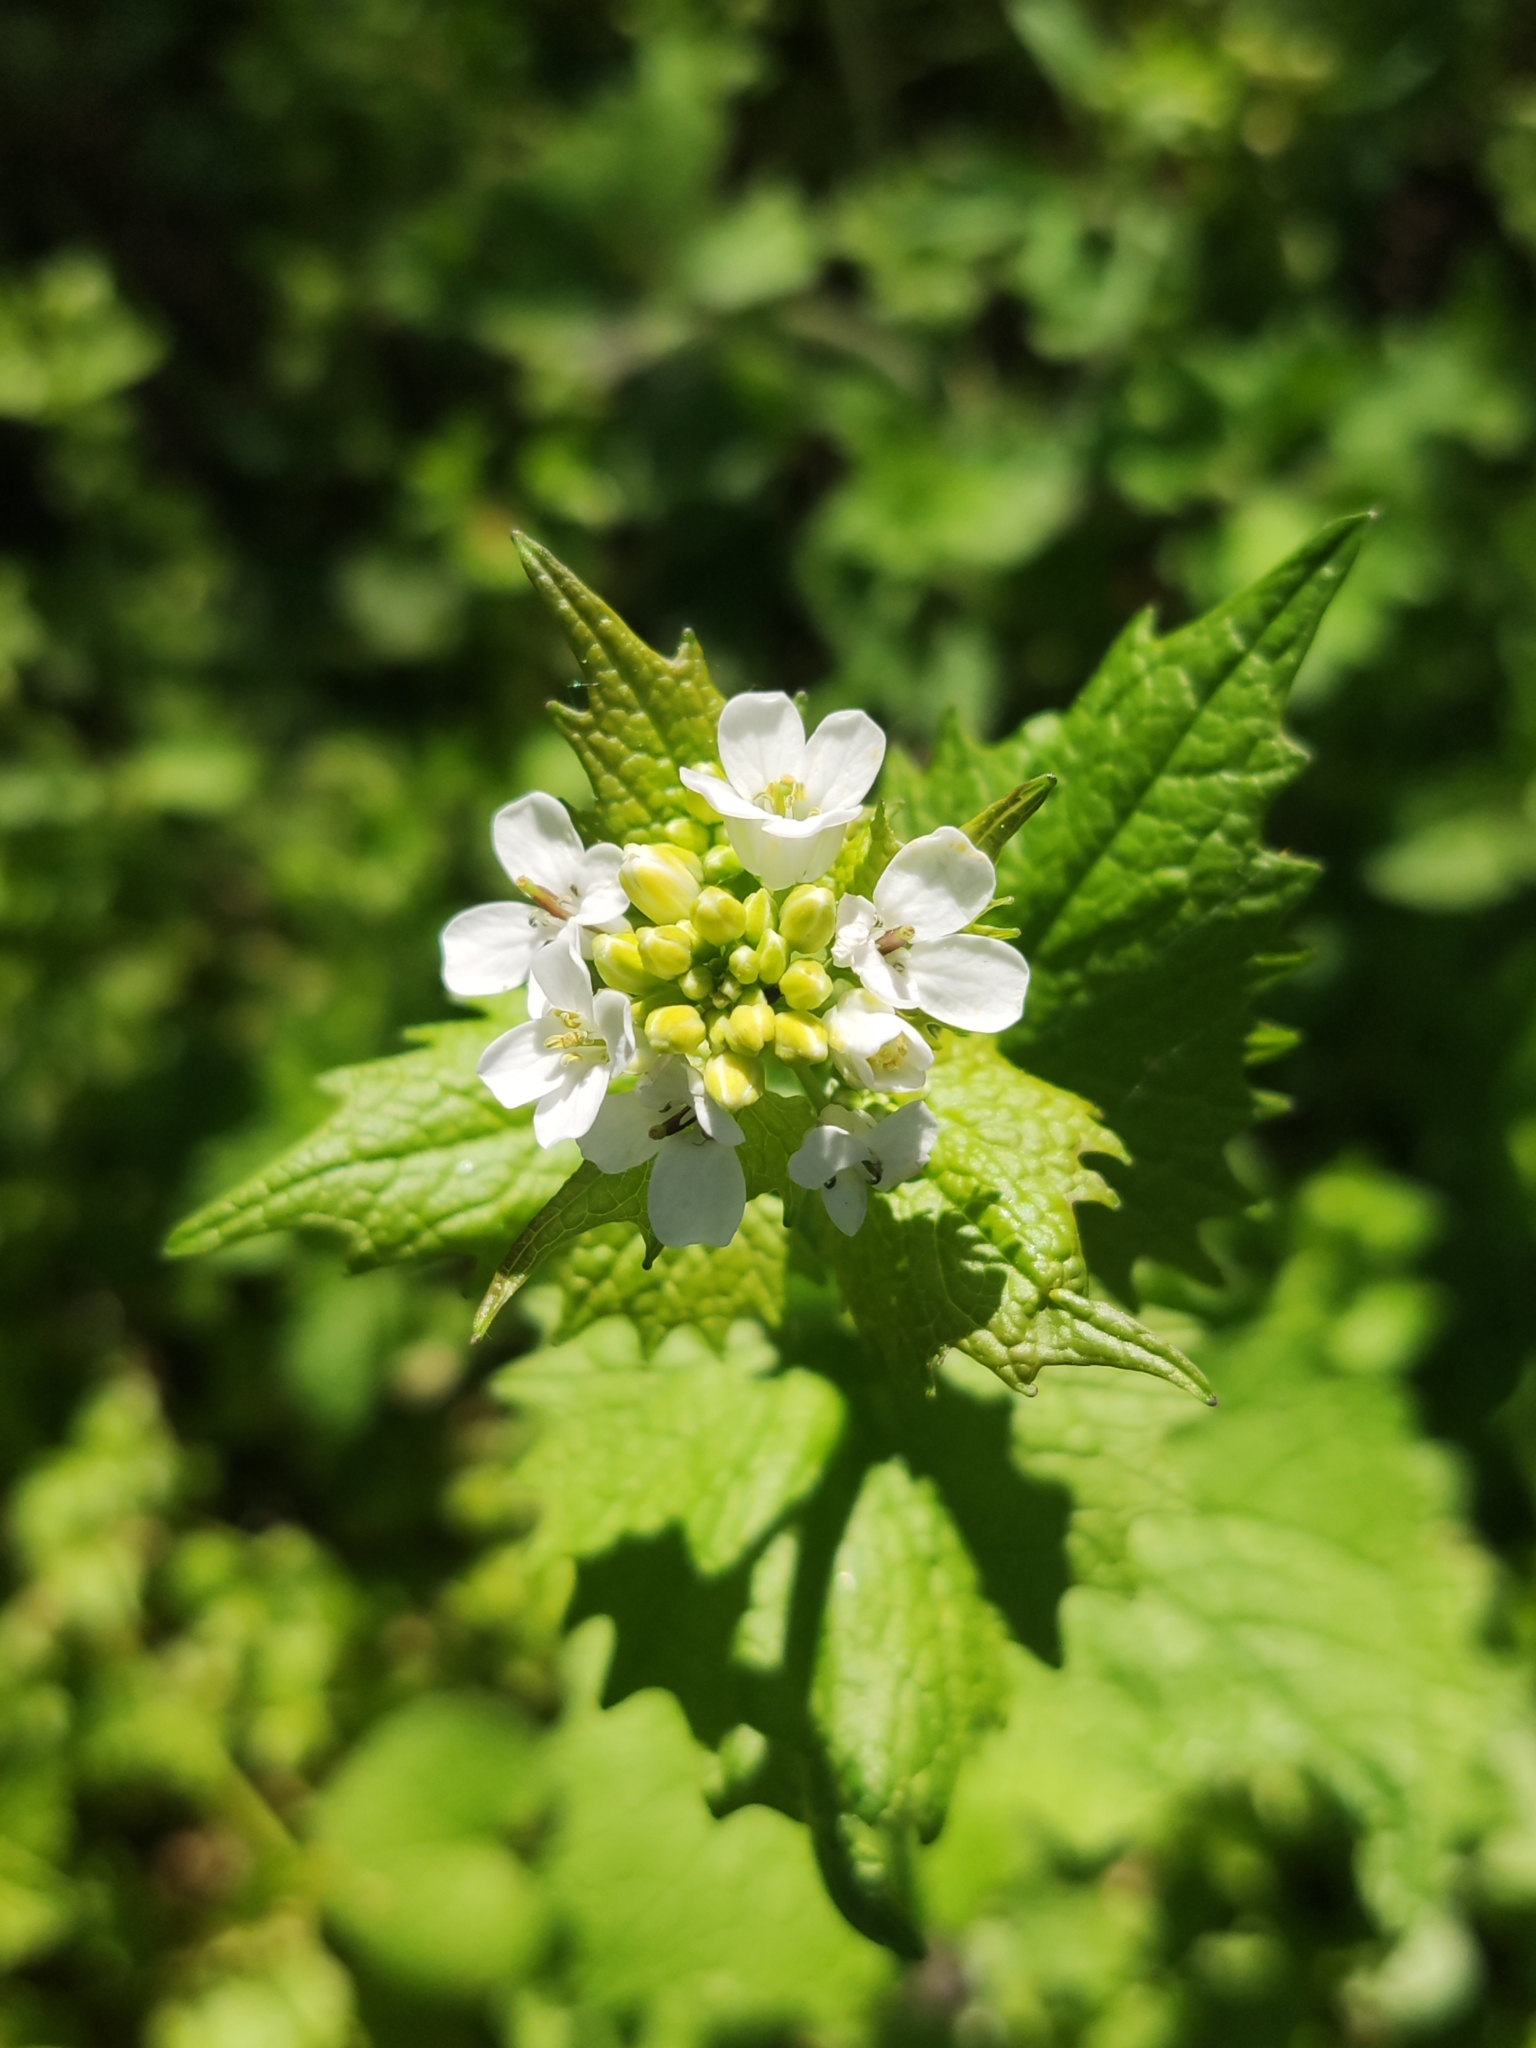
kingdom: Plantae
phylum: Tracheophyta
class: Magnoliopsida
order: Brassicales
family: Brassicaceae
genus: Alliaria
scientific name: Alliaria petiolata
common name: Garlic mustard
